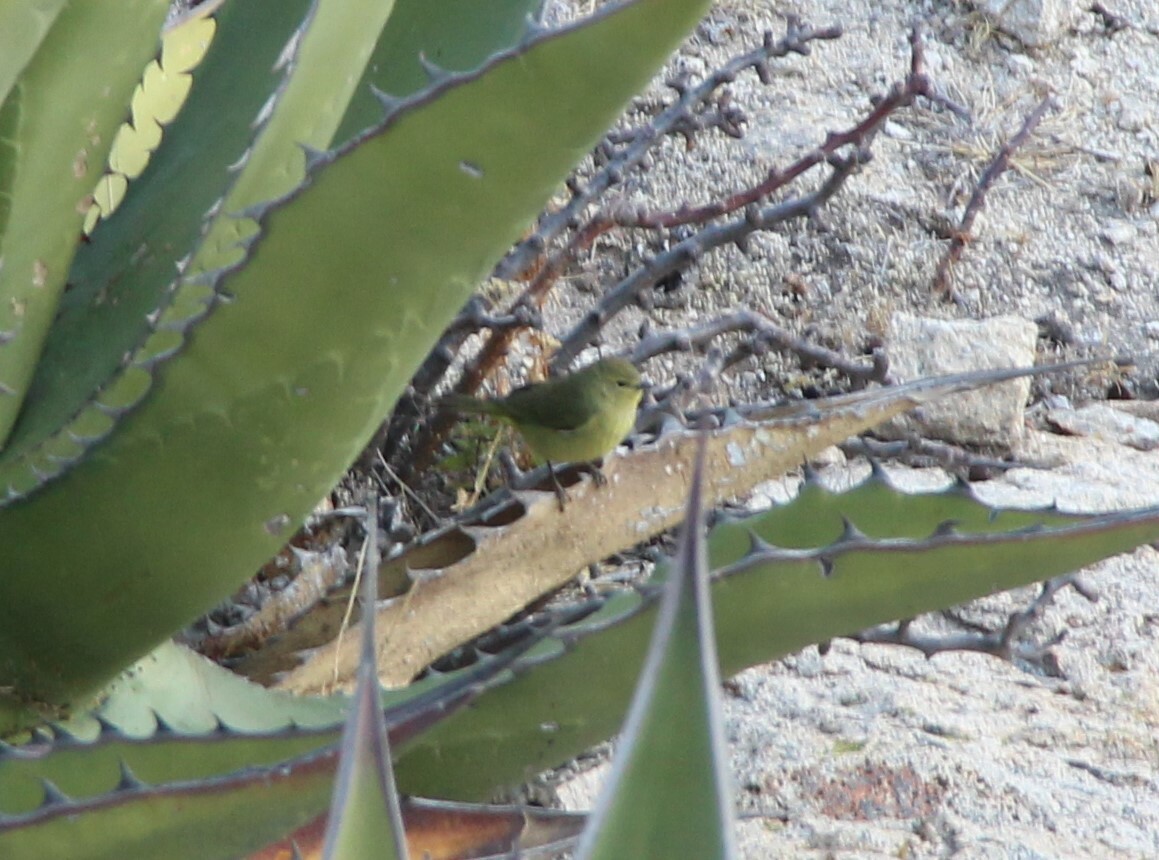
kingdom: Animalia
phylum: Chordata
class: Aves
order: Passeriformes
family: Parulidae
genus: Leiothlypis
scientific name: Leiothlypis celata
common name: Orange-crowned warbler
